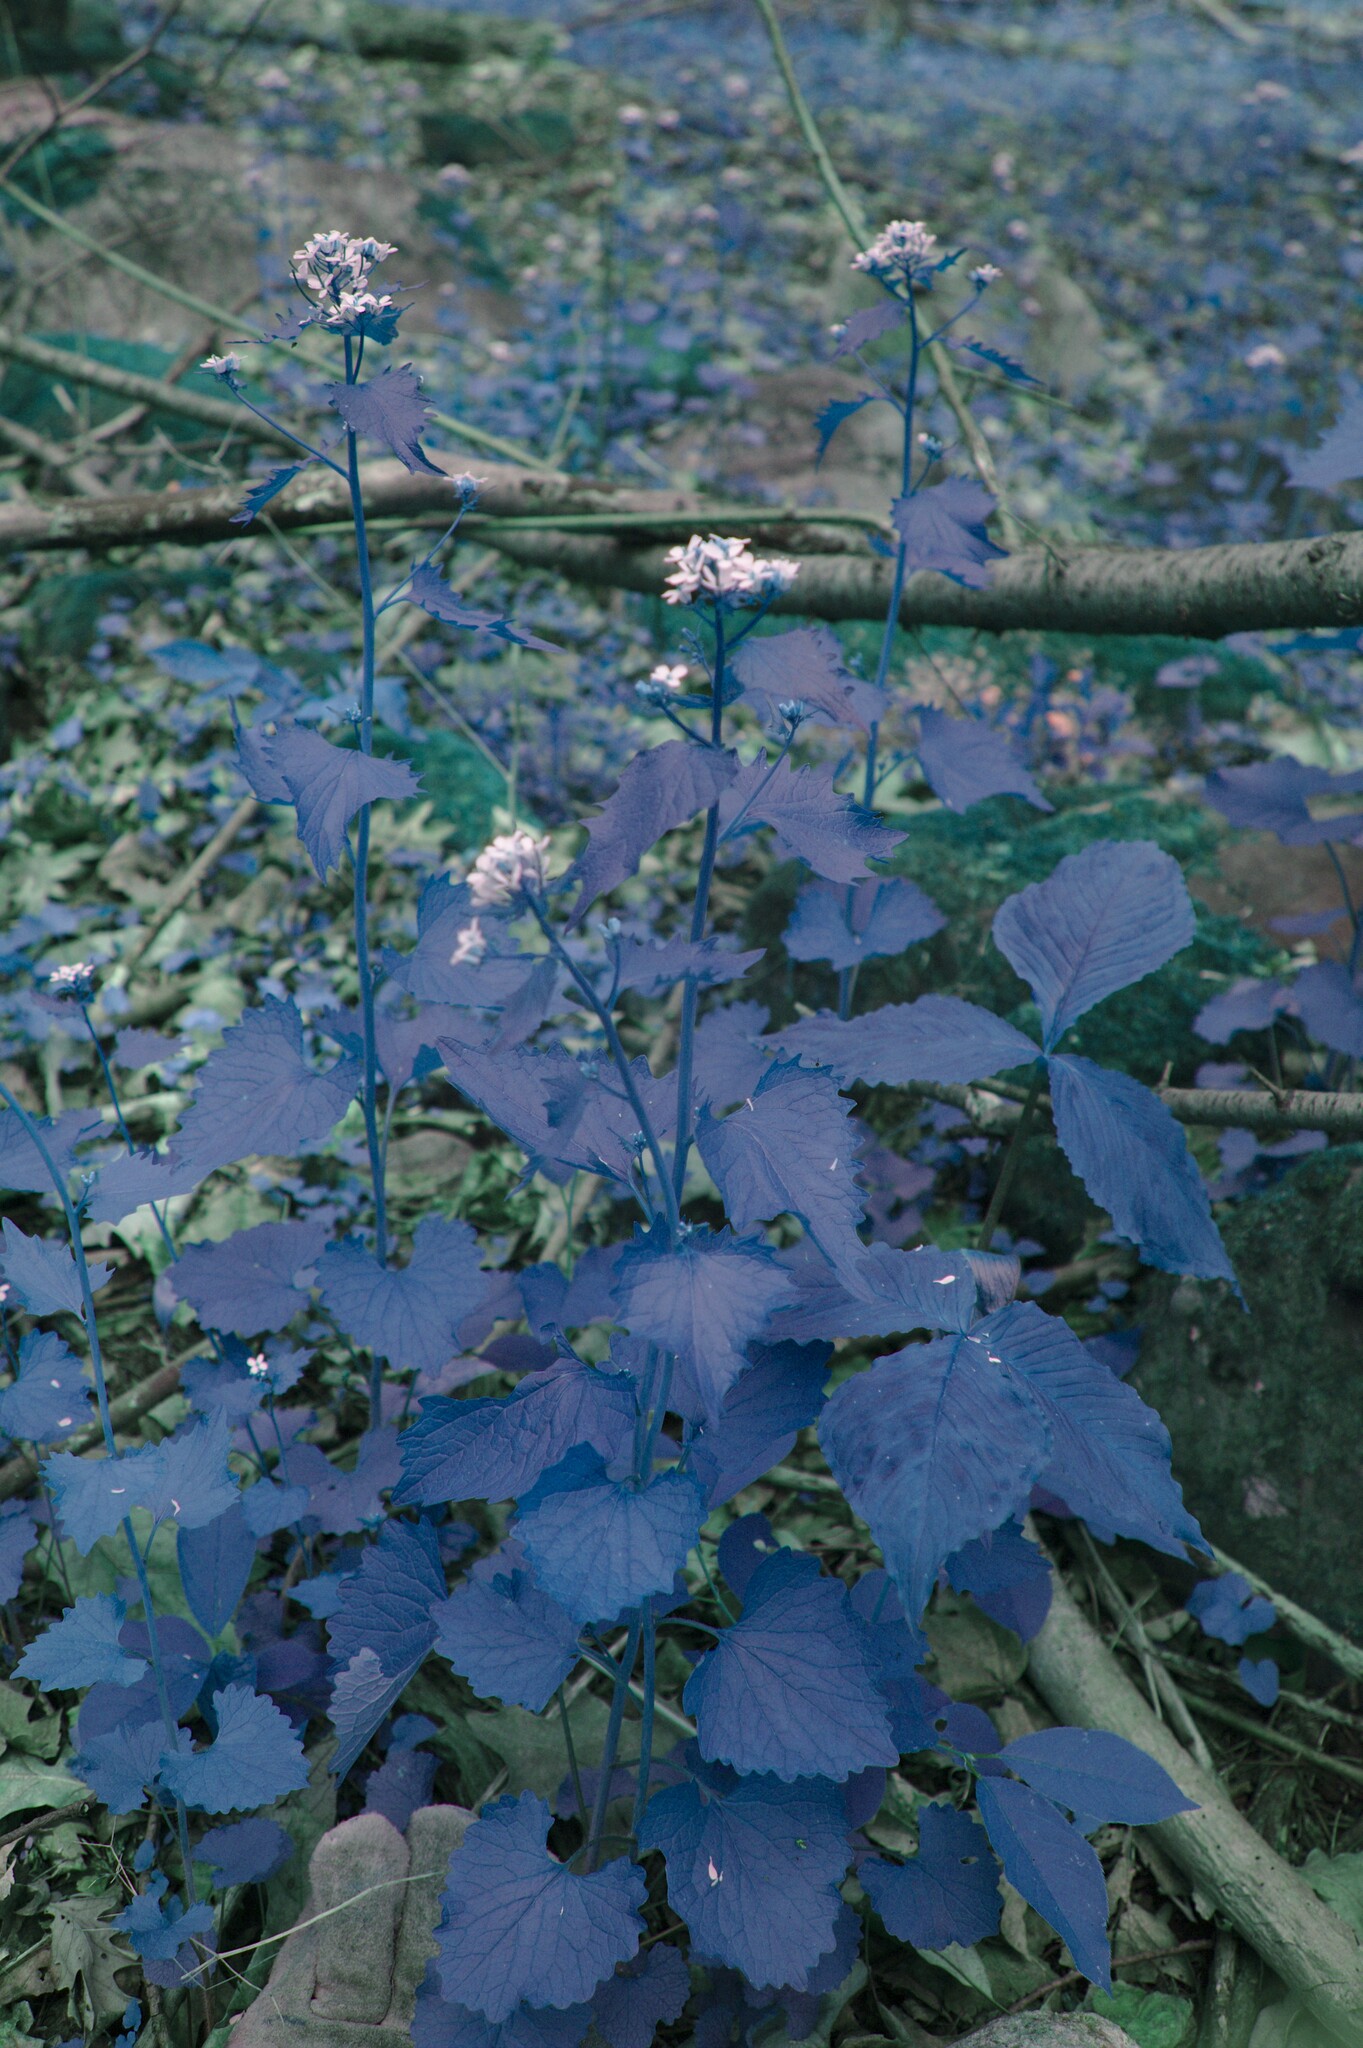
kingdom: Plantae
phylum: Tracheophyta
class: Magnoliopsida
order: Brassicales
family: Brassicaceae
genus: Alliaria
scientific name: Alliaria petiolata
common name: Garlic mustard
